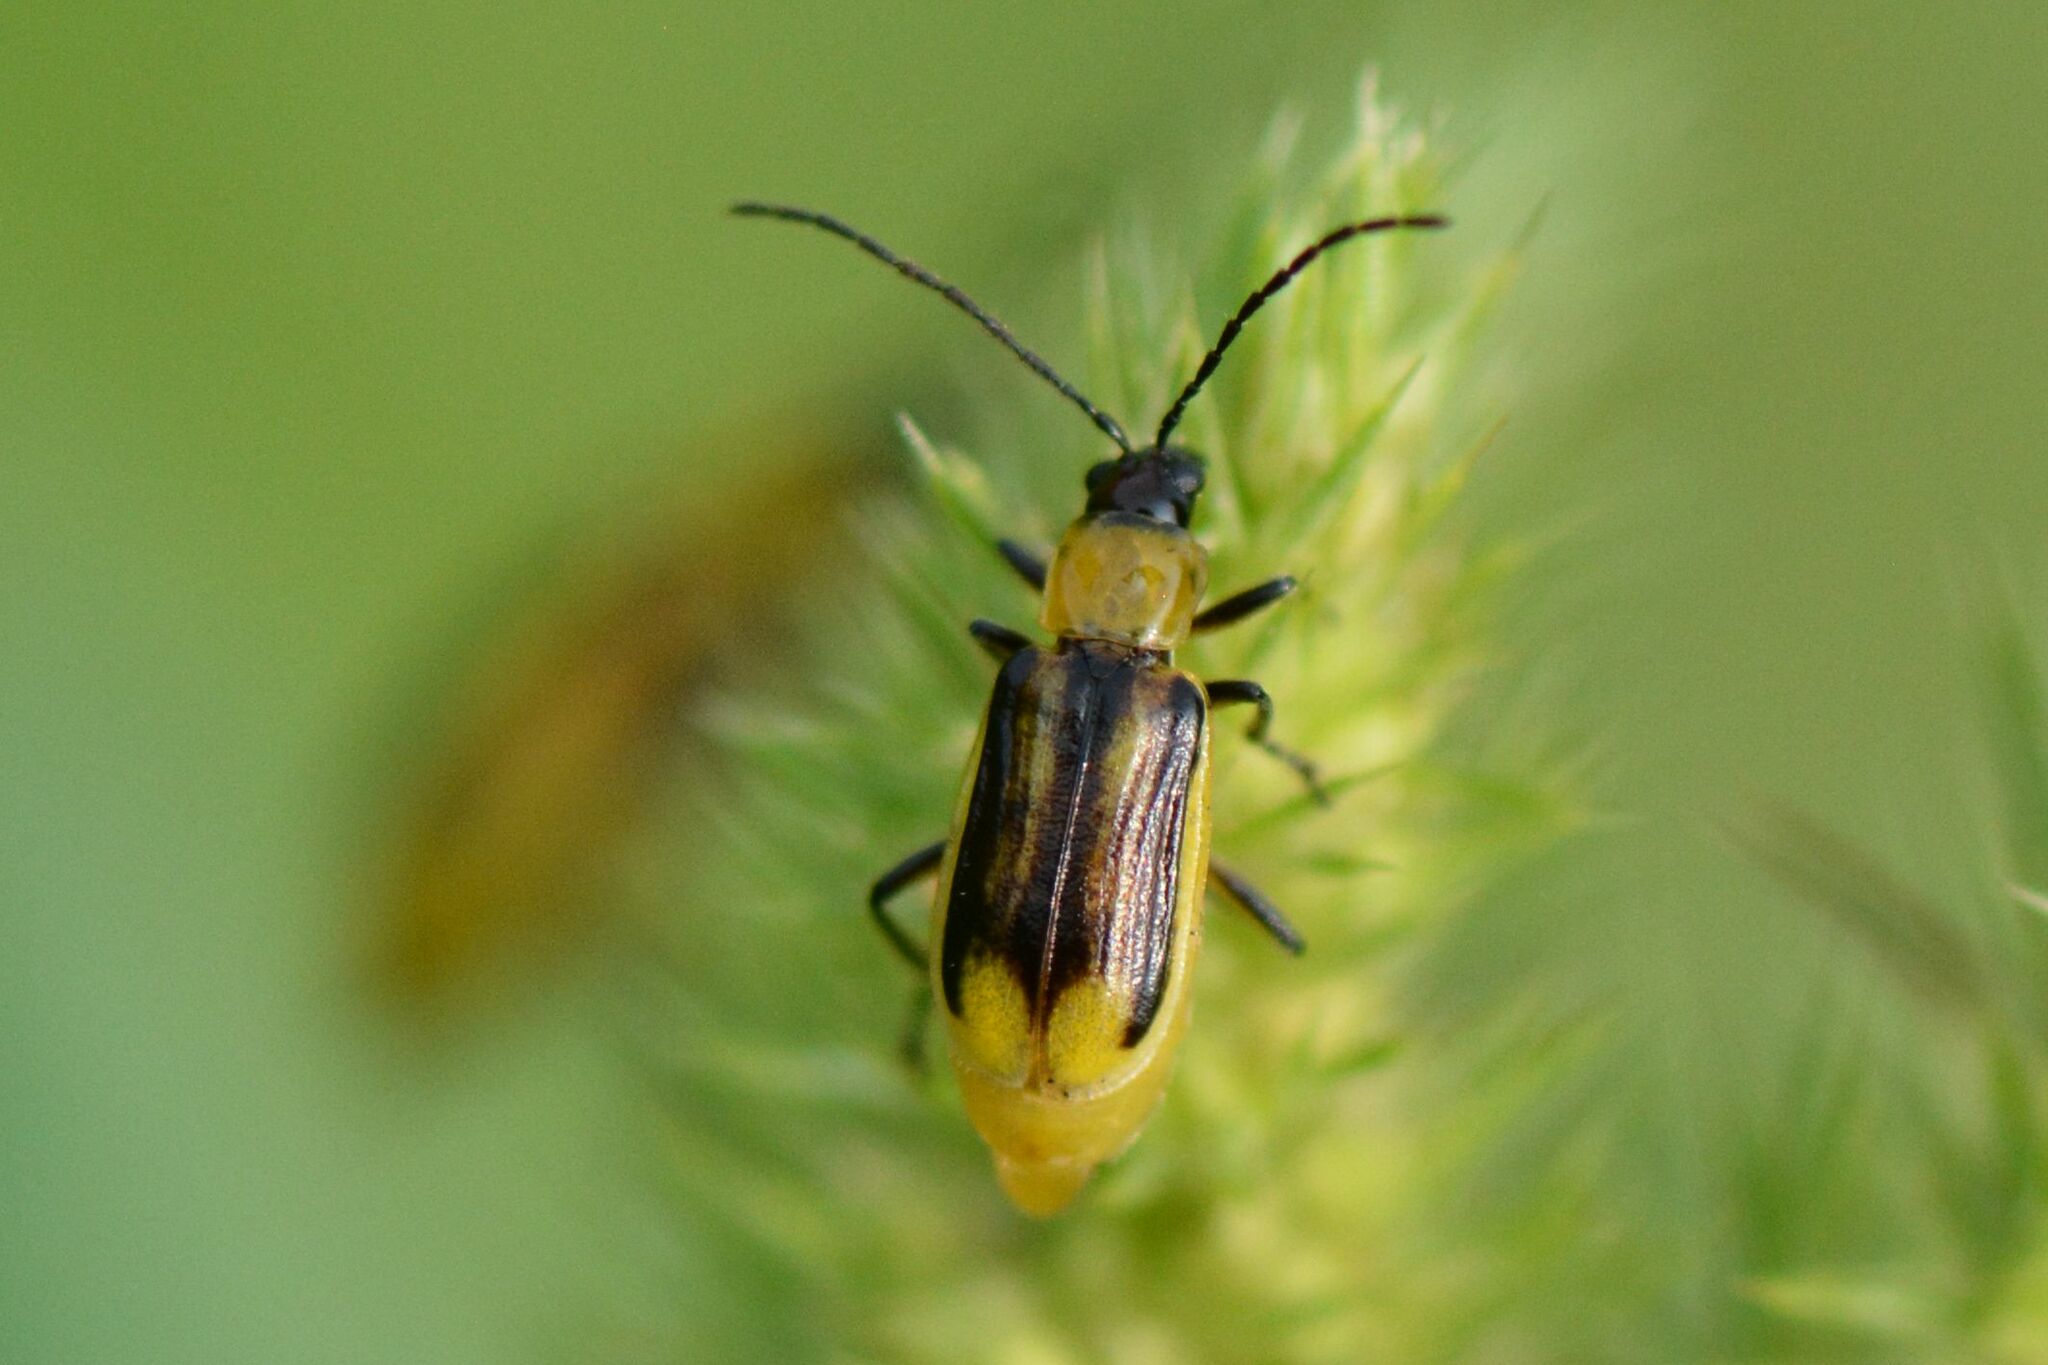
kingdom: Animalia
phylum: Arthropoda
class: Insecta
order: Coleoptera
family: Chrysomelidae
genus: Diabrotica
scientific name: Diabrotica virgifera
